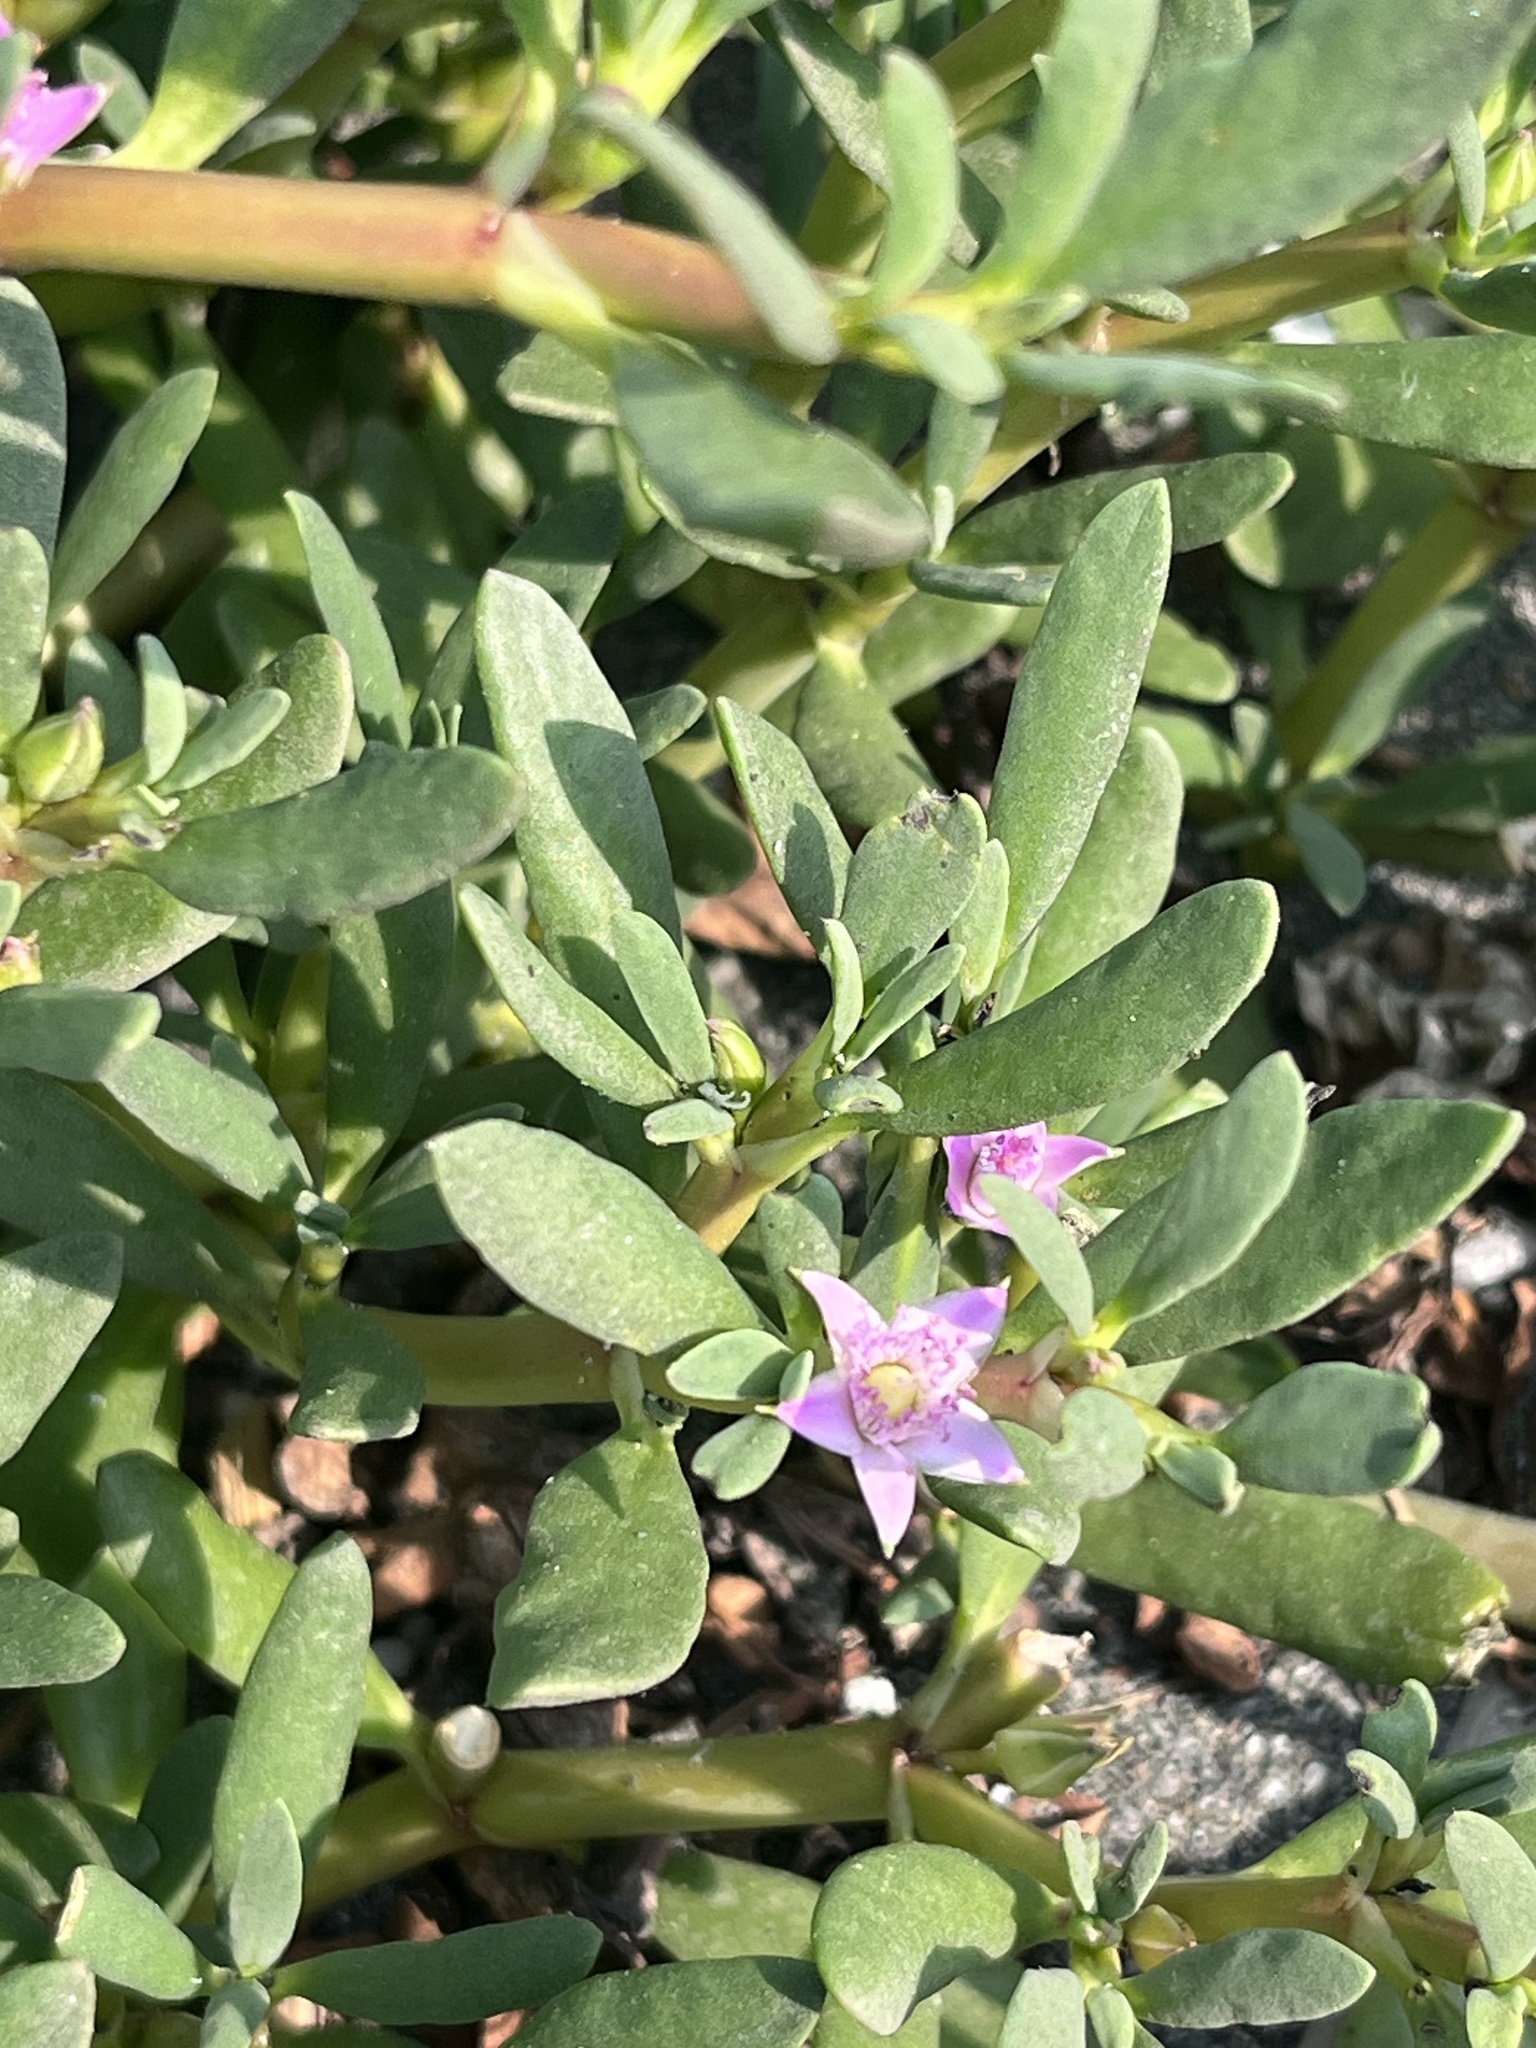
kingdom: Plantae
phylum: Tracheophyta
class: Magnoliopsida
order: Caryophyllales
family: Aizoaceae
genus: Sesuvium
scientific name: Sesuvium portulacastrum
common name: Sea-purslane
